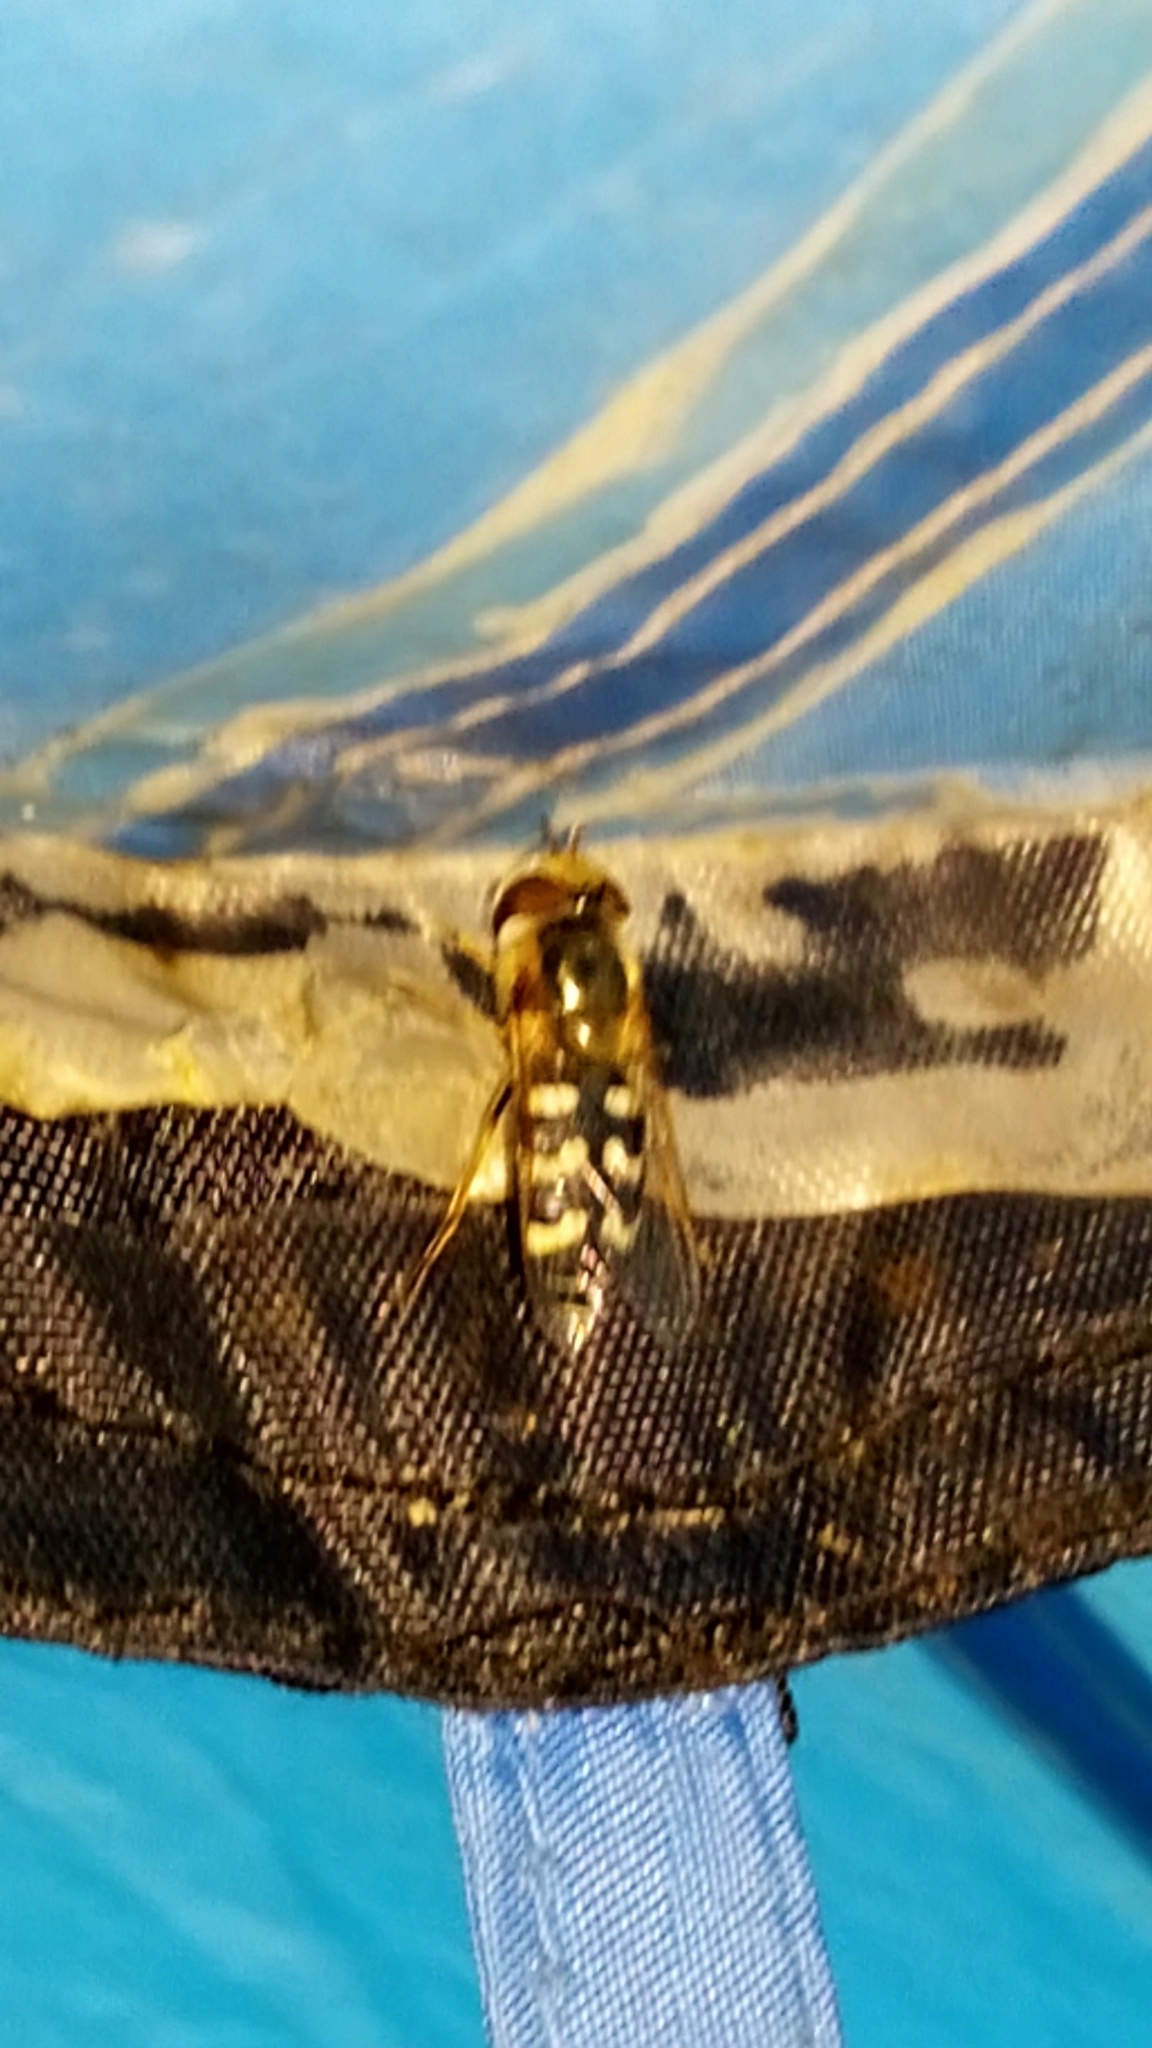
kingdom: Animalia
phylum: Arthropoda
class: Insecta
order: Diptera
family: Syrphidae
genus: Scaeva
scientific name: Scaeva pyrastri
